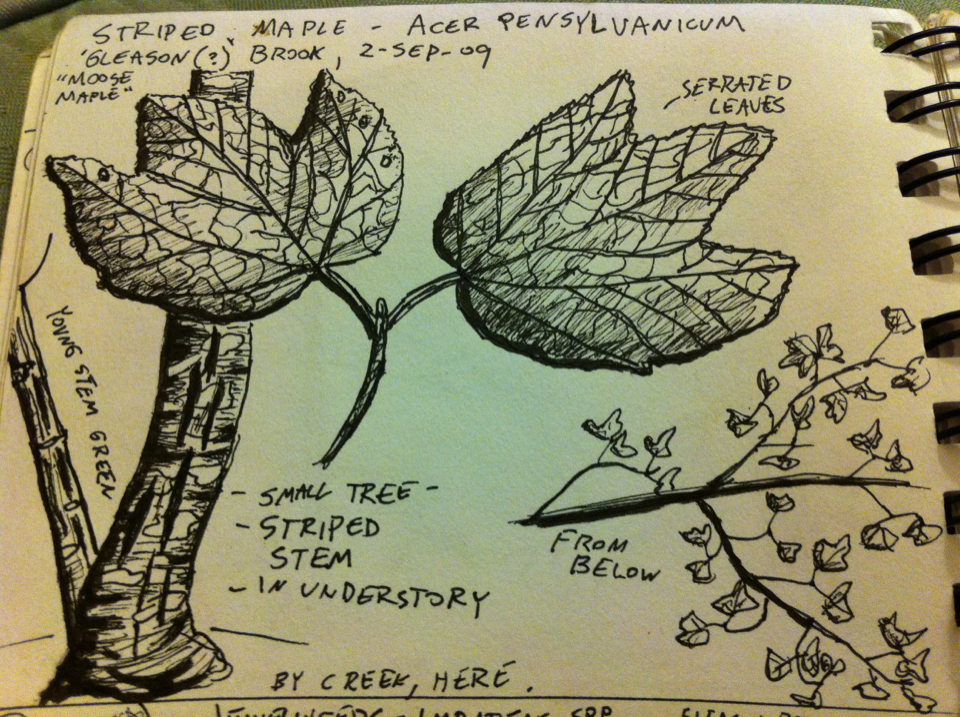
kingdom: Plantae
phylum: Tracheophyta
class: Magnoliopsida
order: Sapindales
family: Sapindaceae
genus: Acer
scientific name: Acer pensylvanicum
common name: Moosewood
